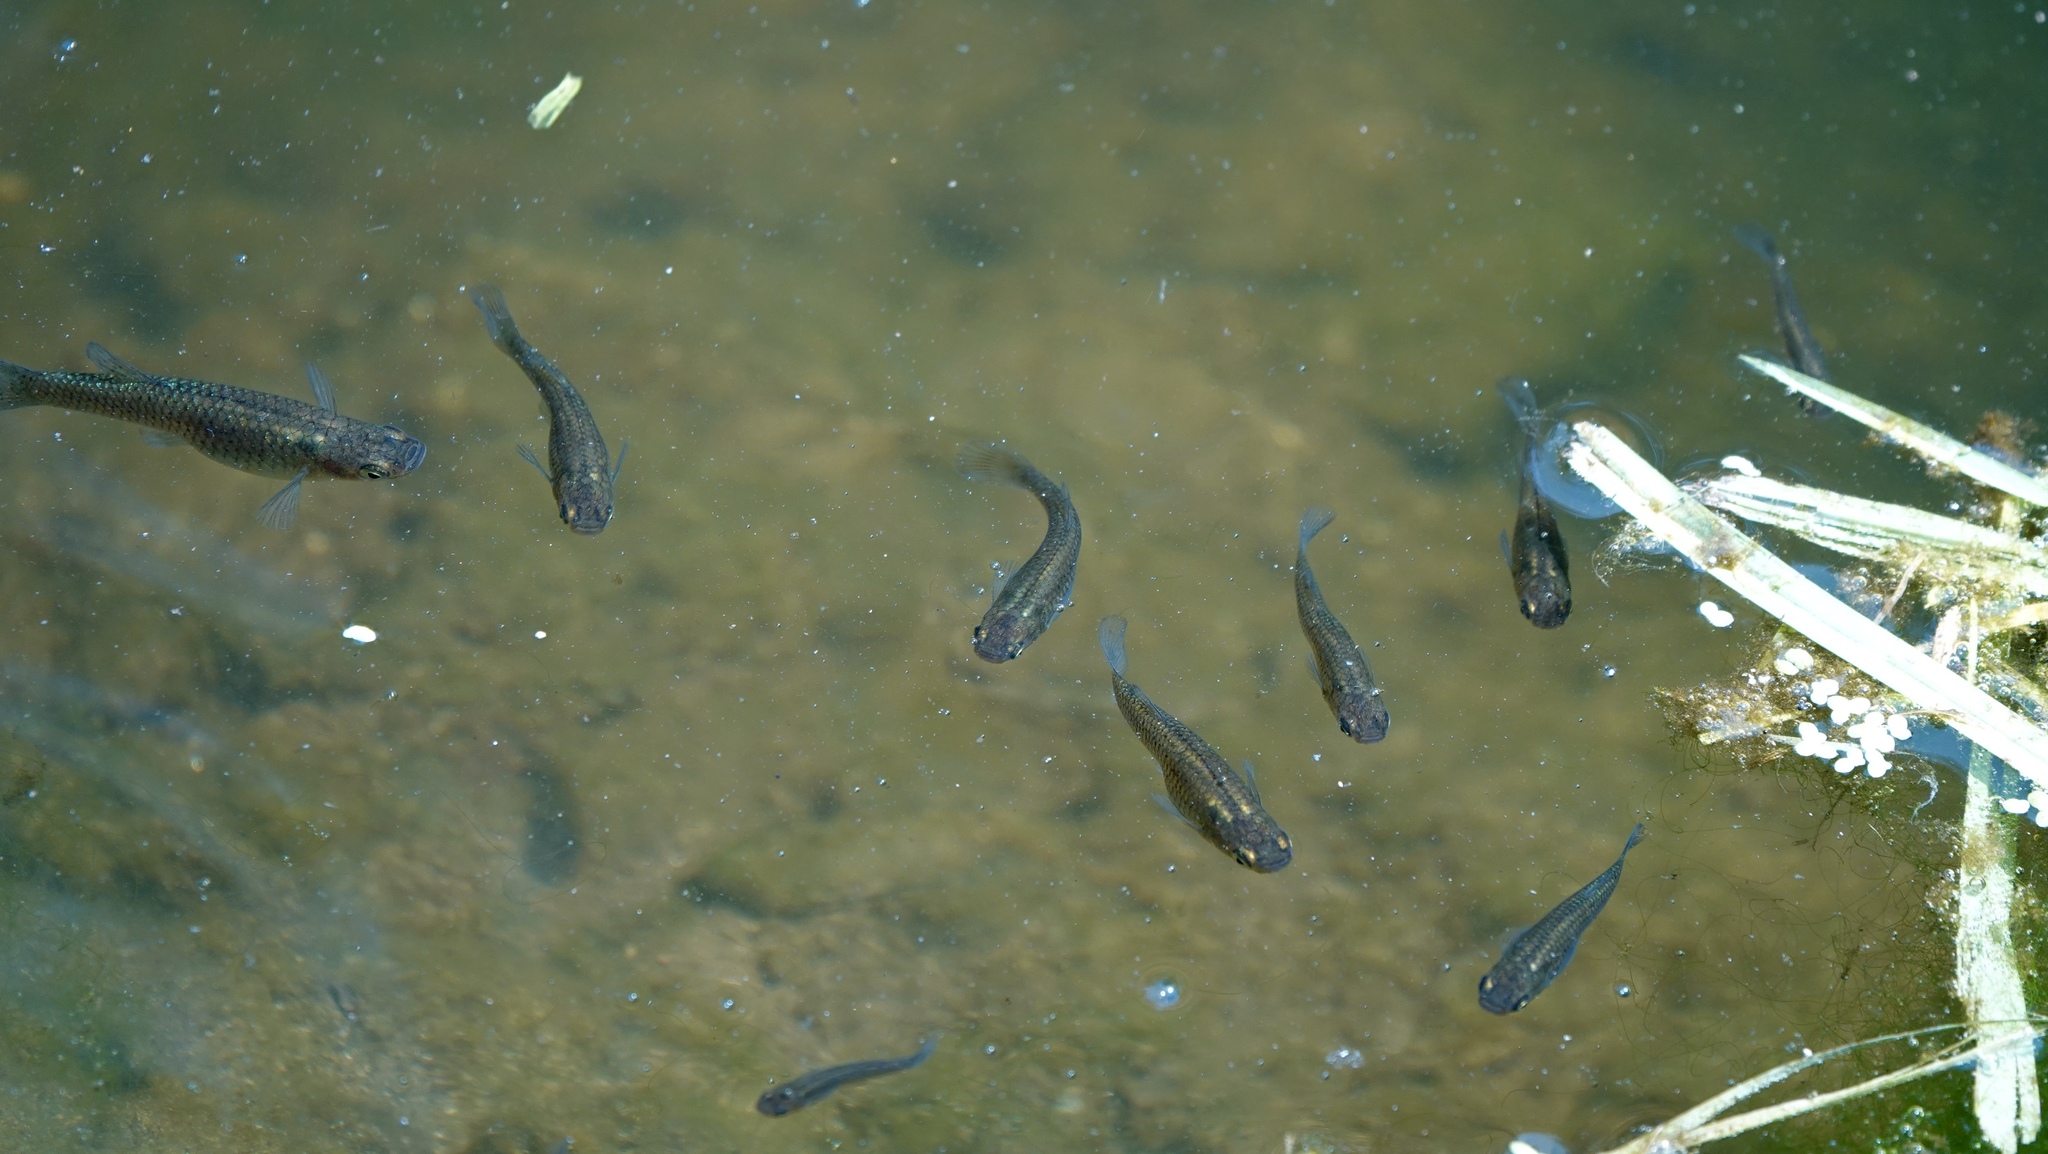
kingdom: Animalia
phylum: Chordata
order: Cyprinodontiformes
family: Poeciliidae
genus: Gambusia
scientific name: Gambusia affinis
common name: Mosquitofish
